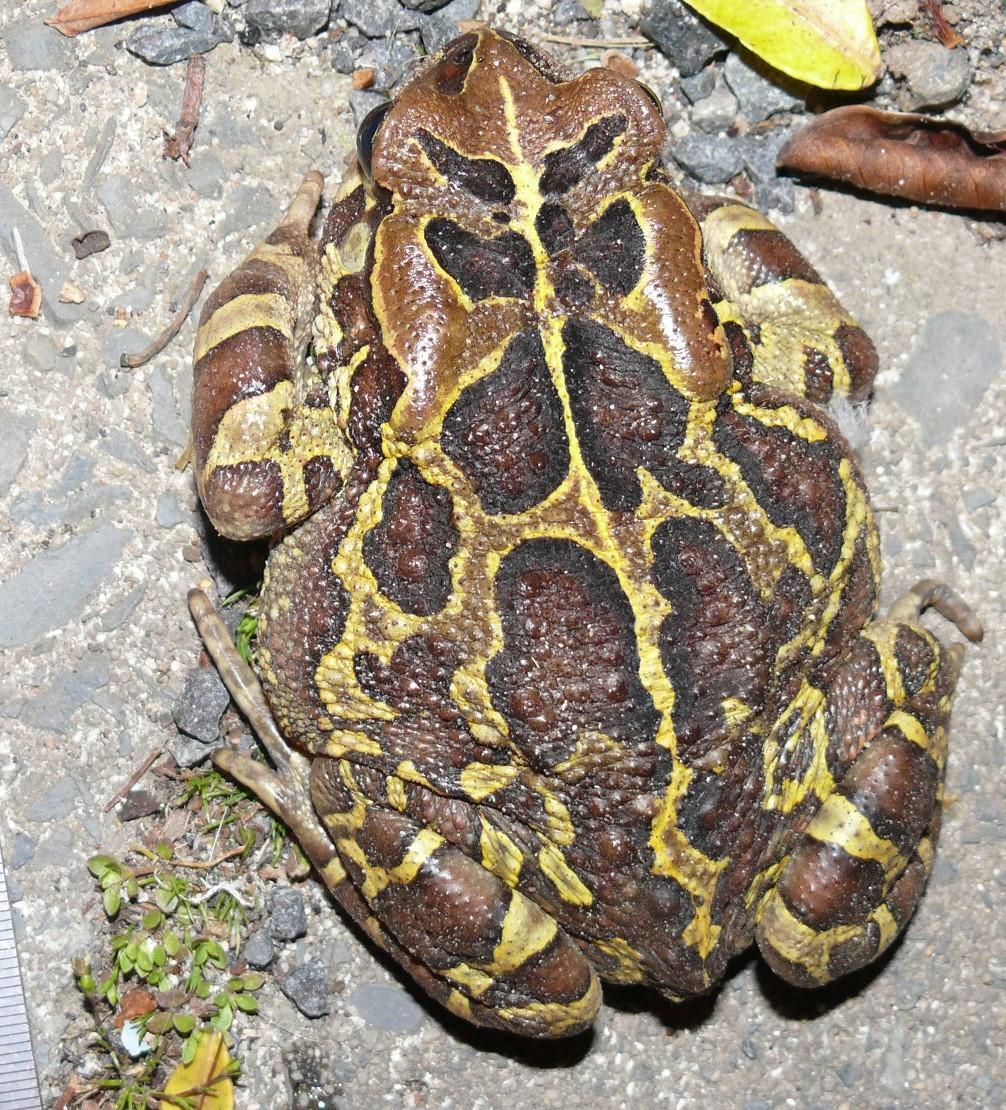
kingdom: Animalia
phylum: Chordata
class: Amphibia
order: Anura
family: Bufonidae
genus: Sclerophrys
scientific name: Sclerophrys pantherina
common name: Panther toad
